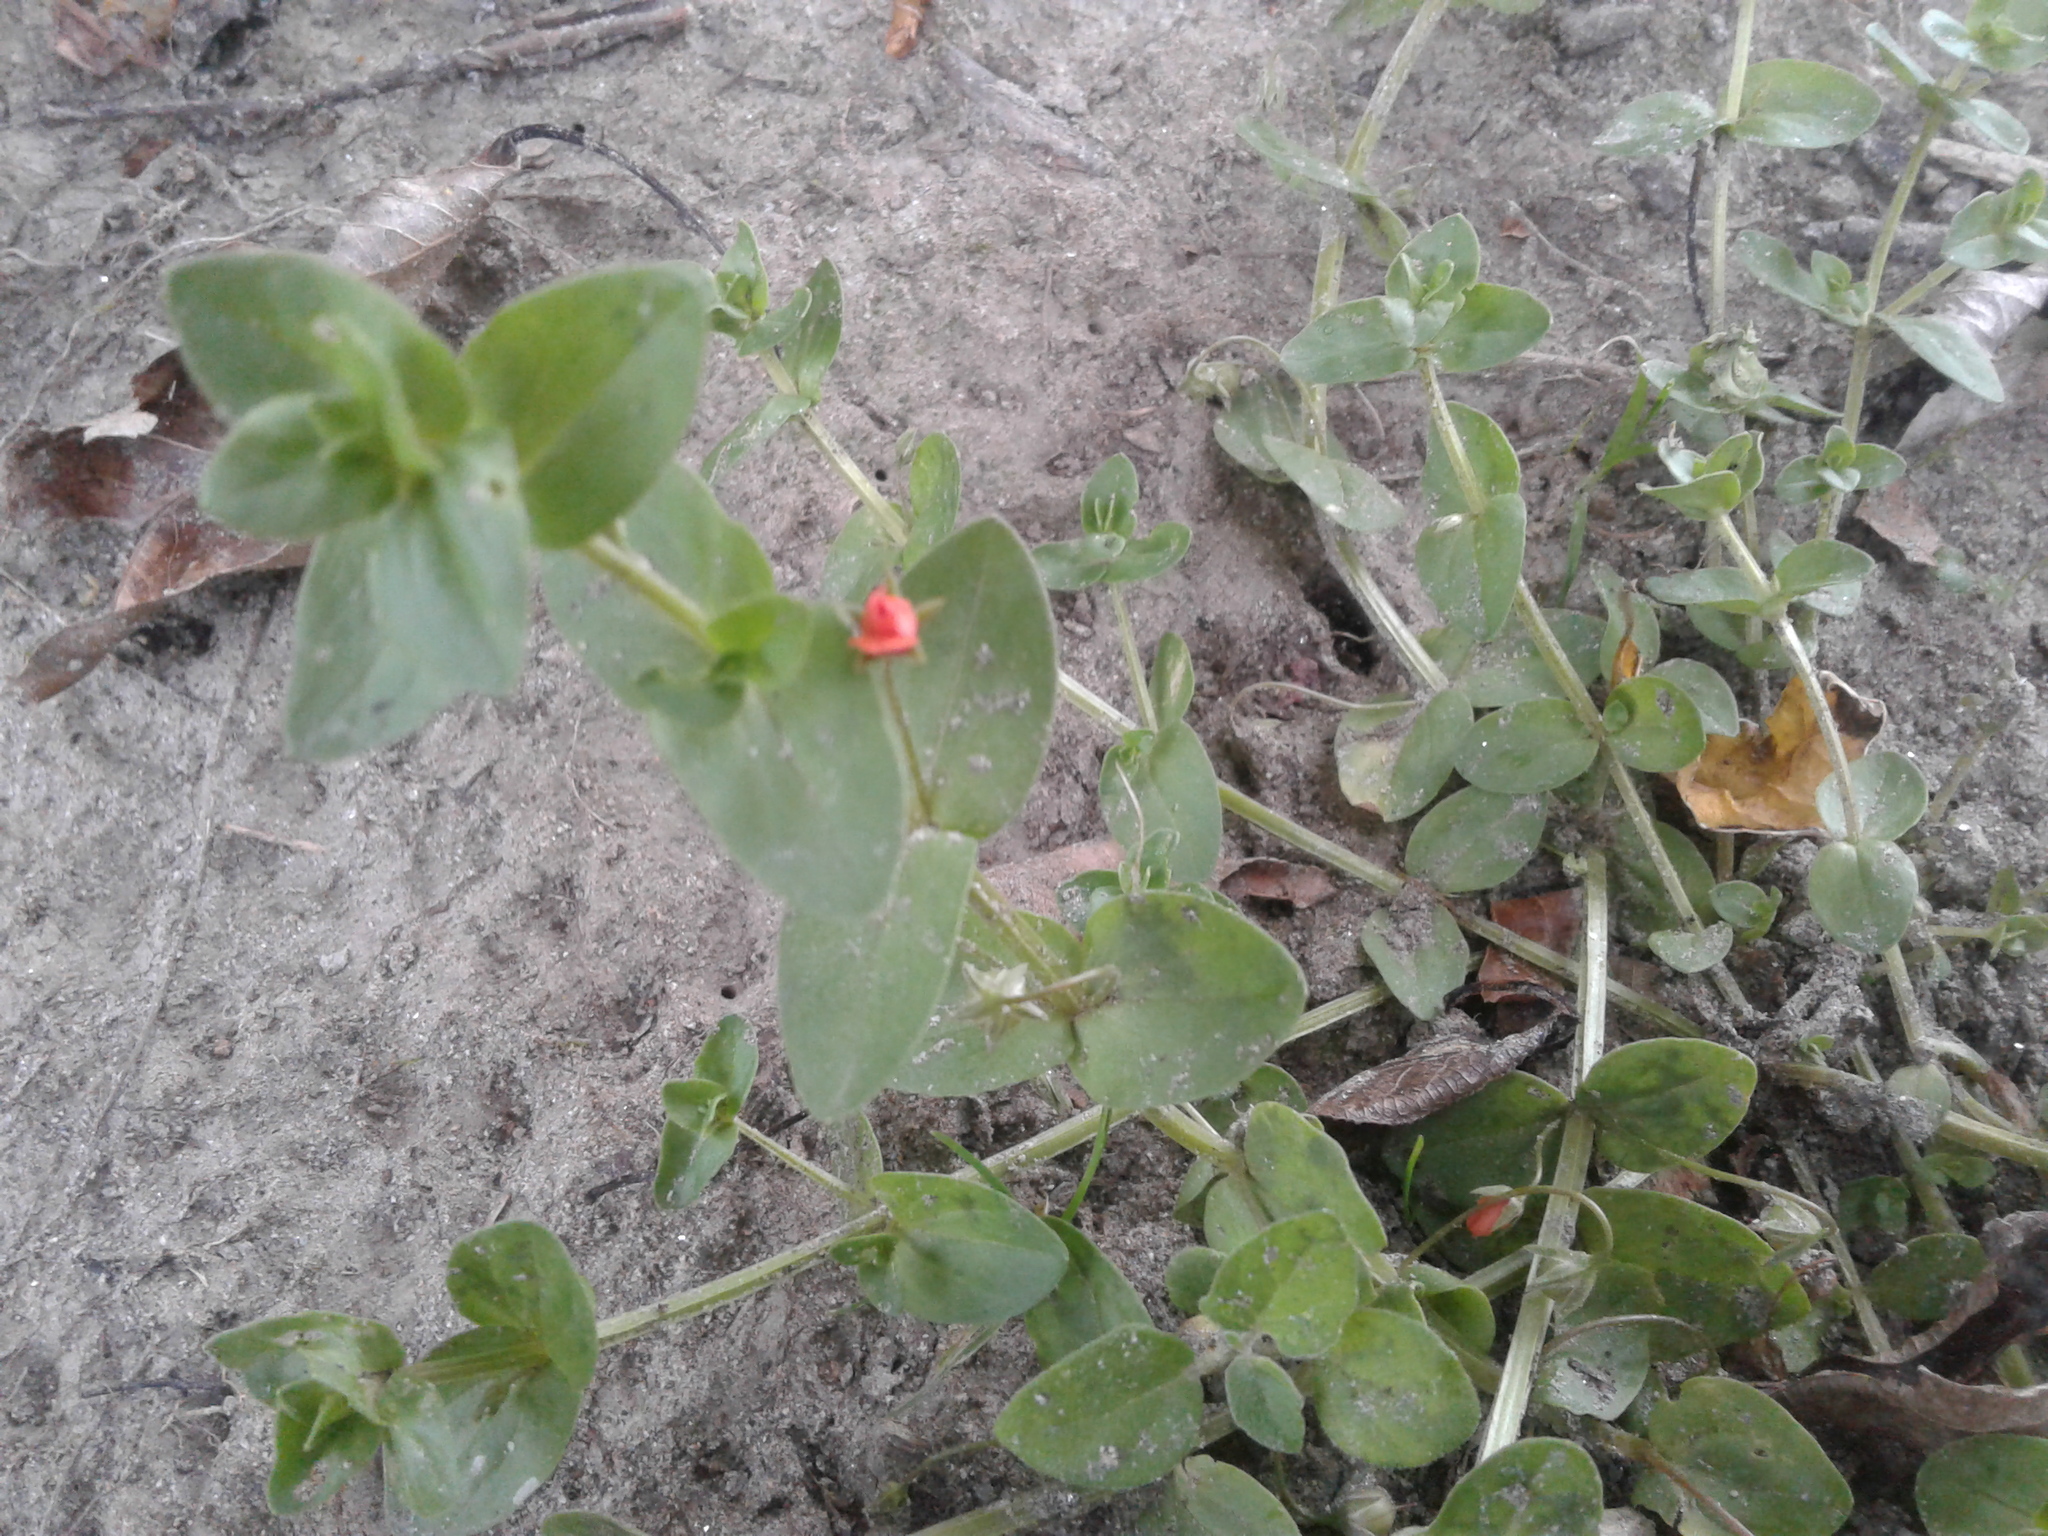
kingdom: Plantae
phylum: Tracheophyta
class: Magnoliopsida
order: Ericales
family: Primulaceae
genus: Lysimachia
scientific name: Lysimachia arvensis
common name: Scarlet pimpernel
